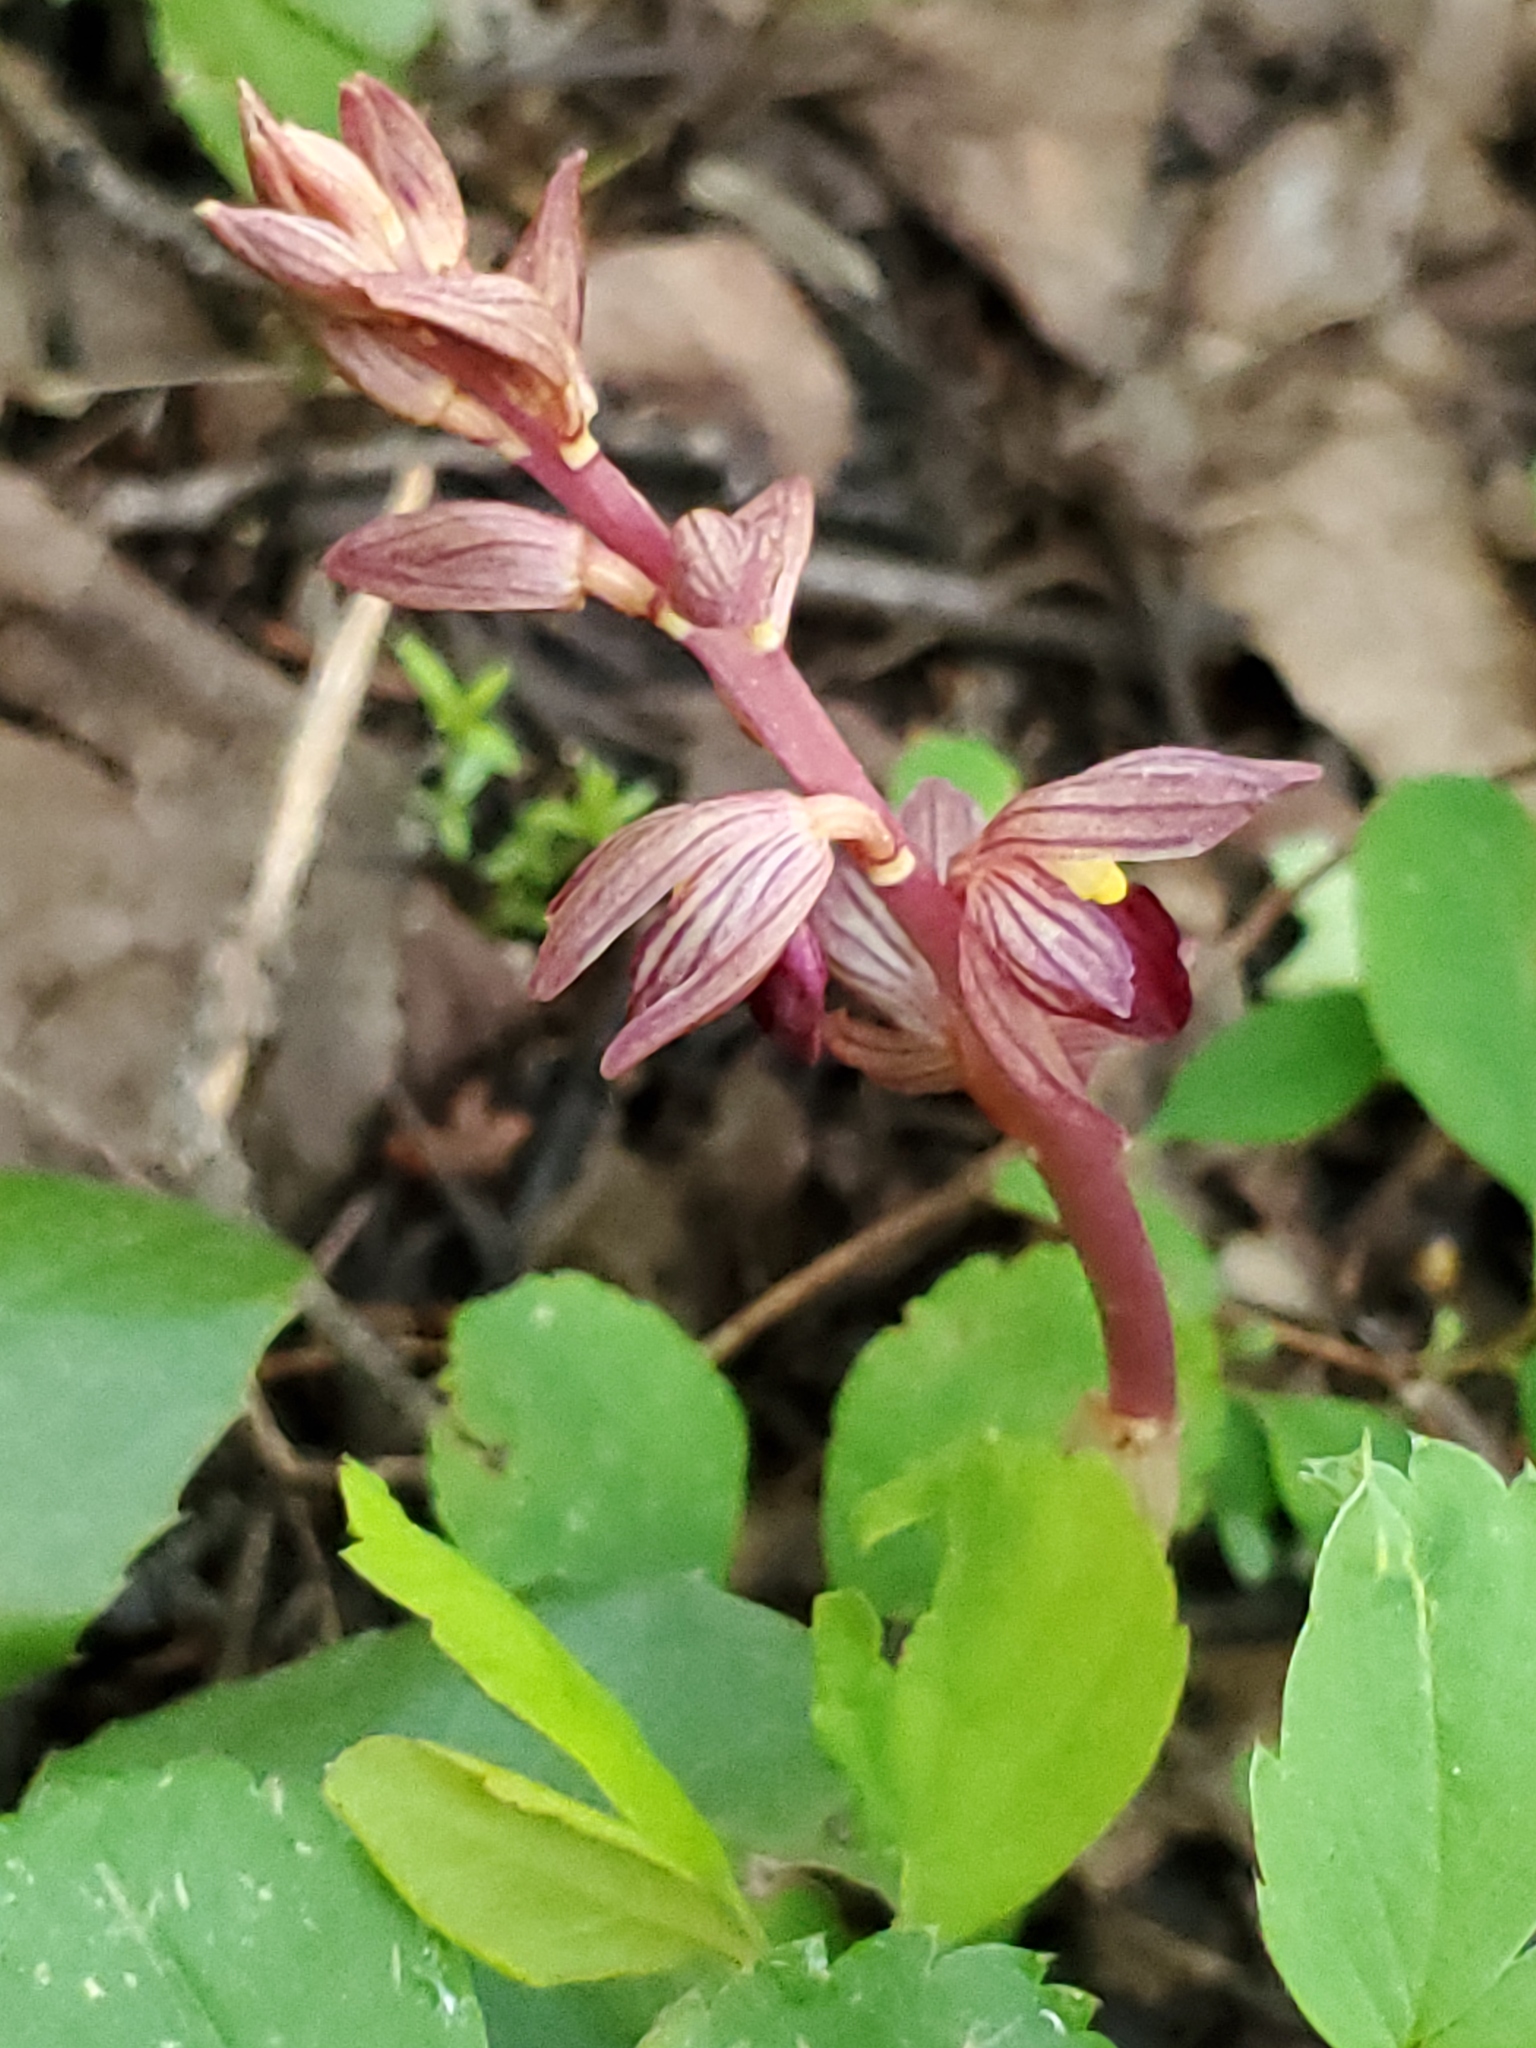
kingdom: Plantae
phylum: Tracheophyta
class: Liliopsida
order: Asparagales
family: Orchidaceae
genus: Corallorhiza
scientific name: Corallorhiza striata
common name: Hooded coralroot
